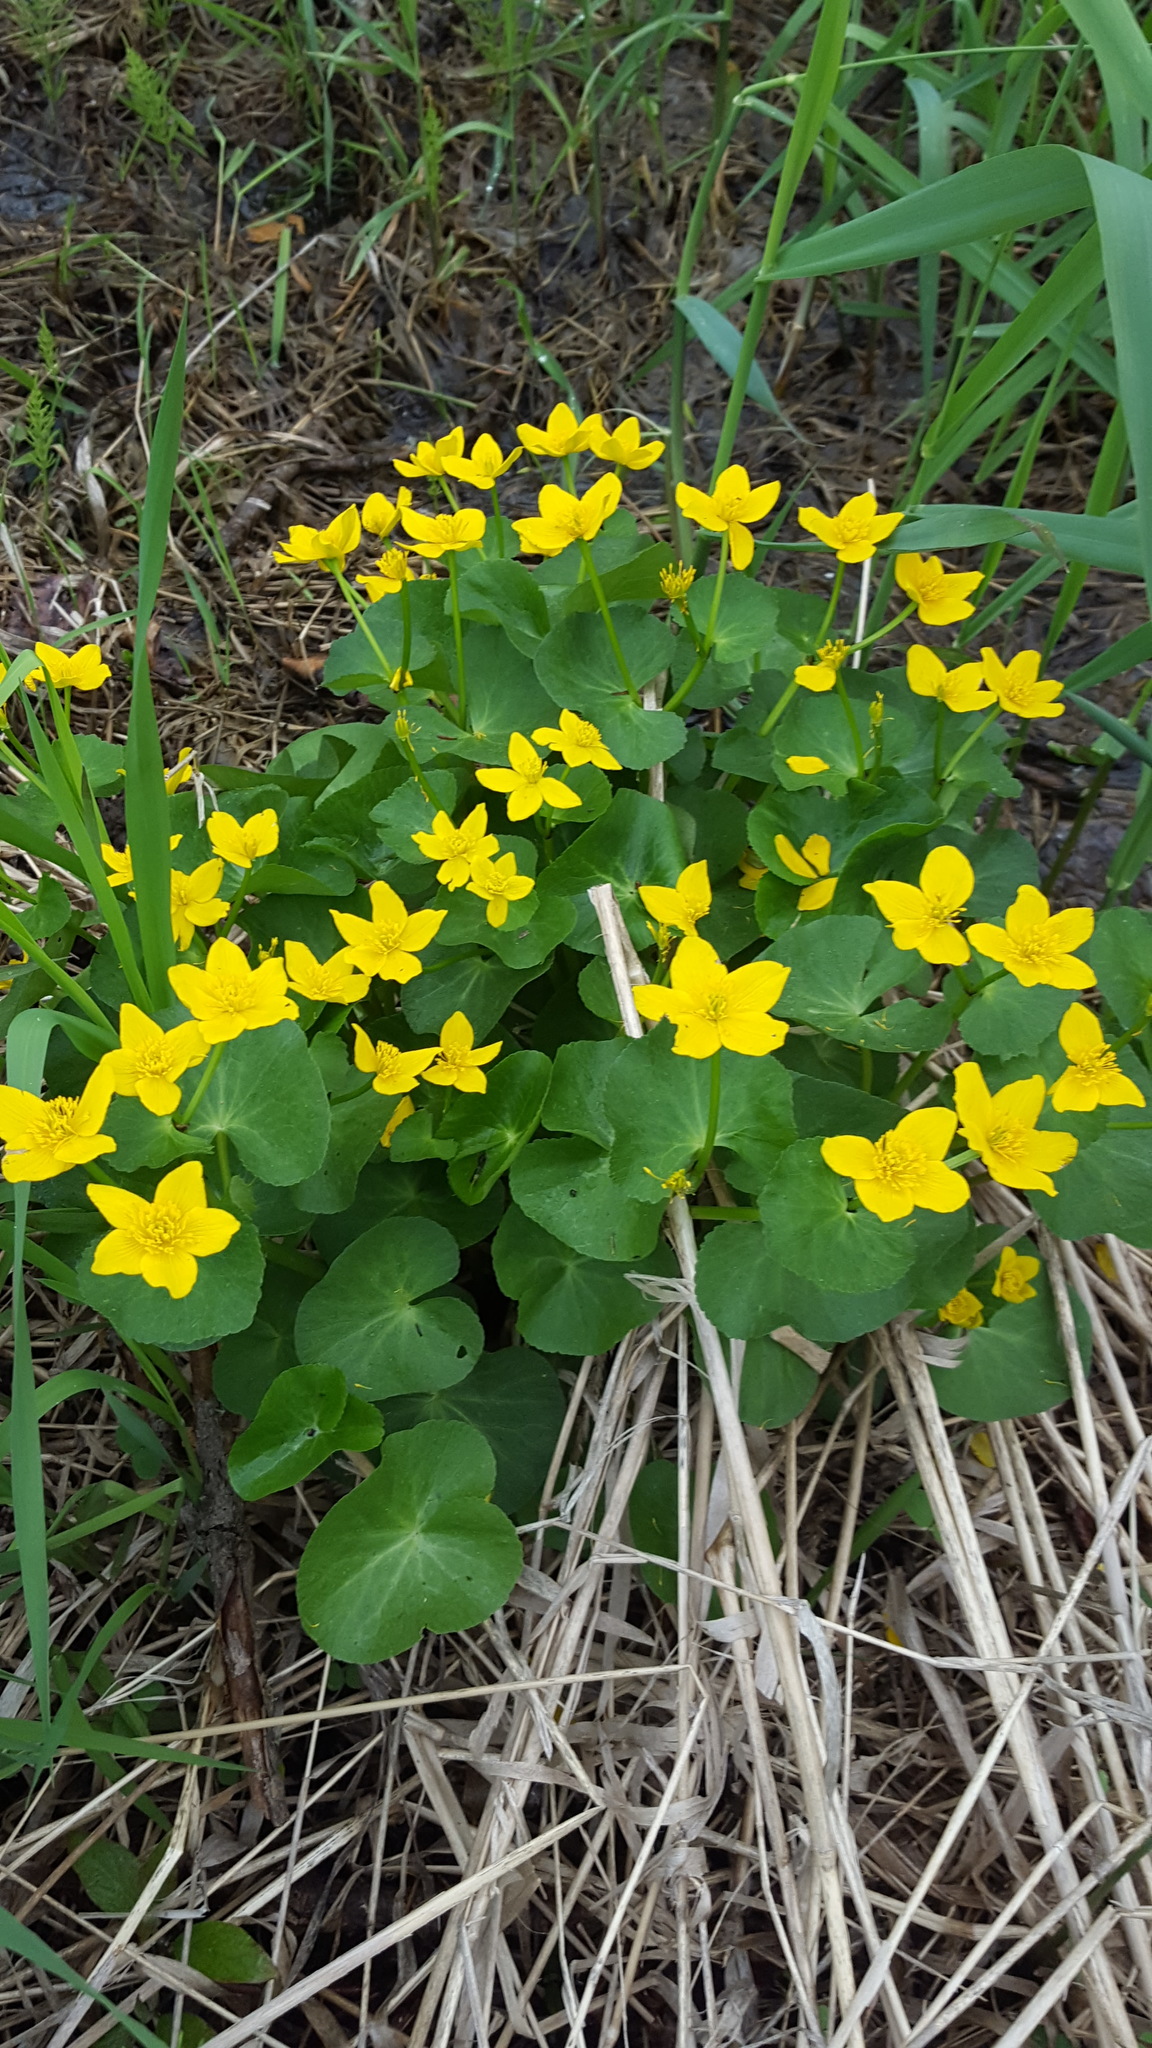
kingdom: Plantae
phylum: Tracheophyta
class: Magnoliopsida
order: Ranunculales
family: Ranunculaceae
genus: Caltha
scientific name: Caltha palustris
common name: Marsh marigold
